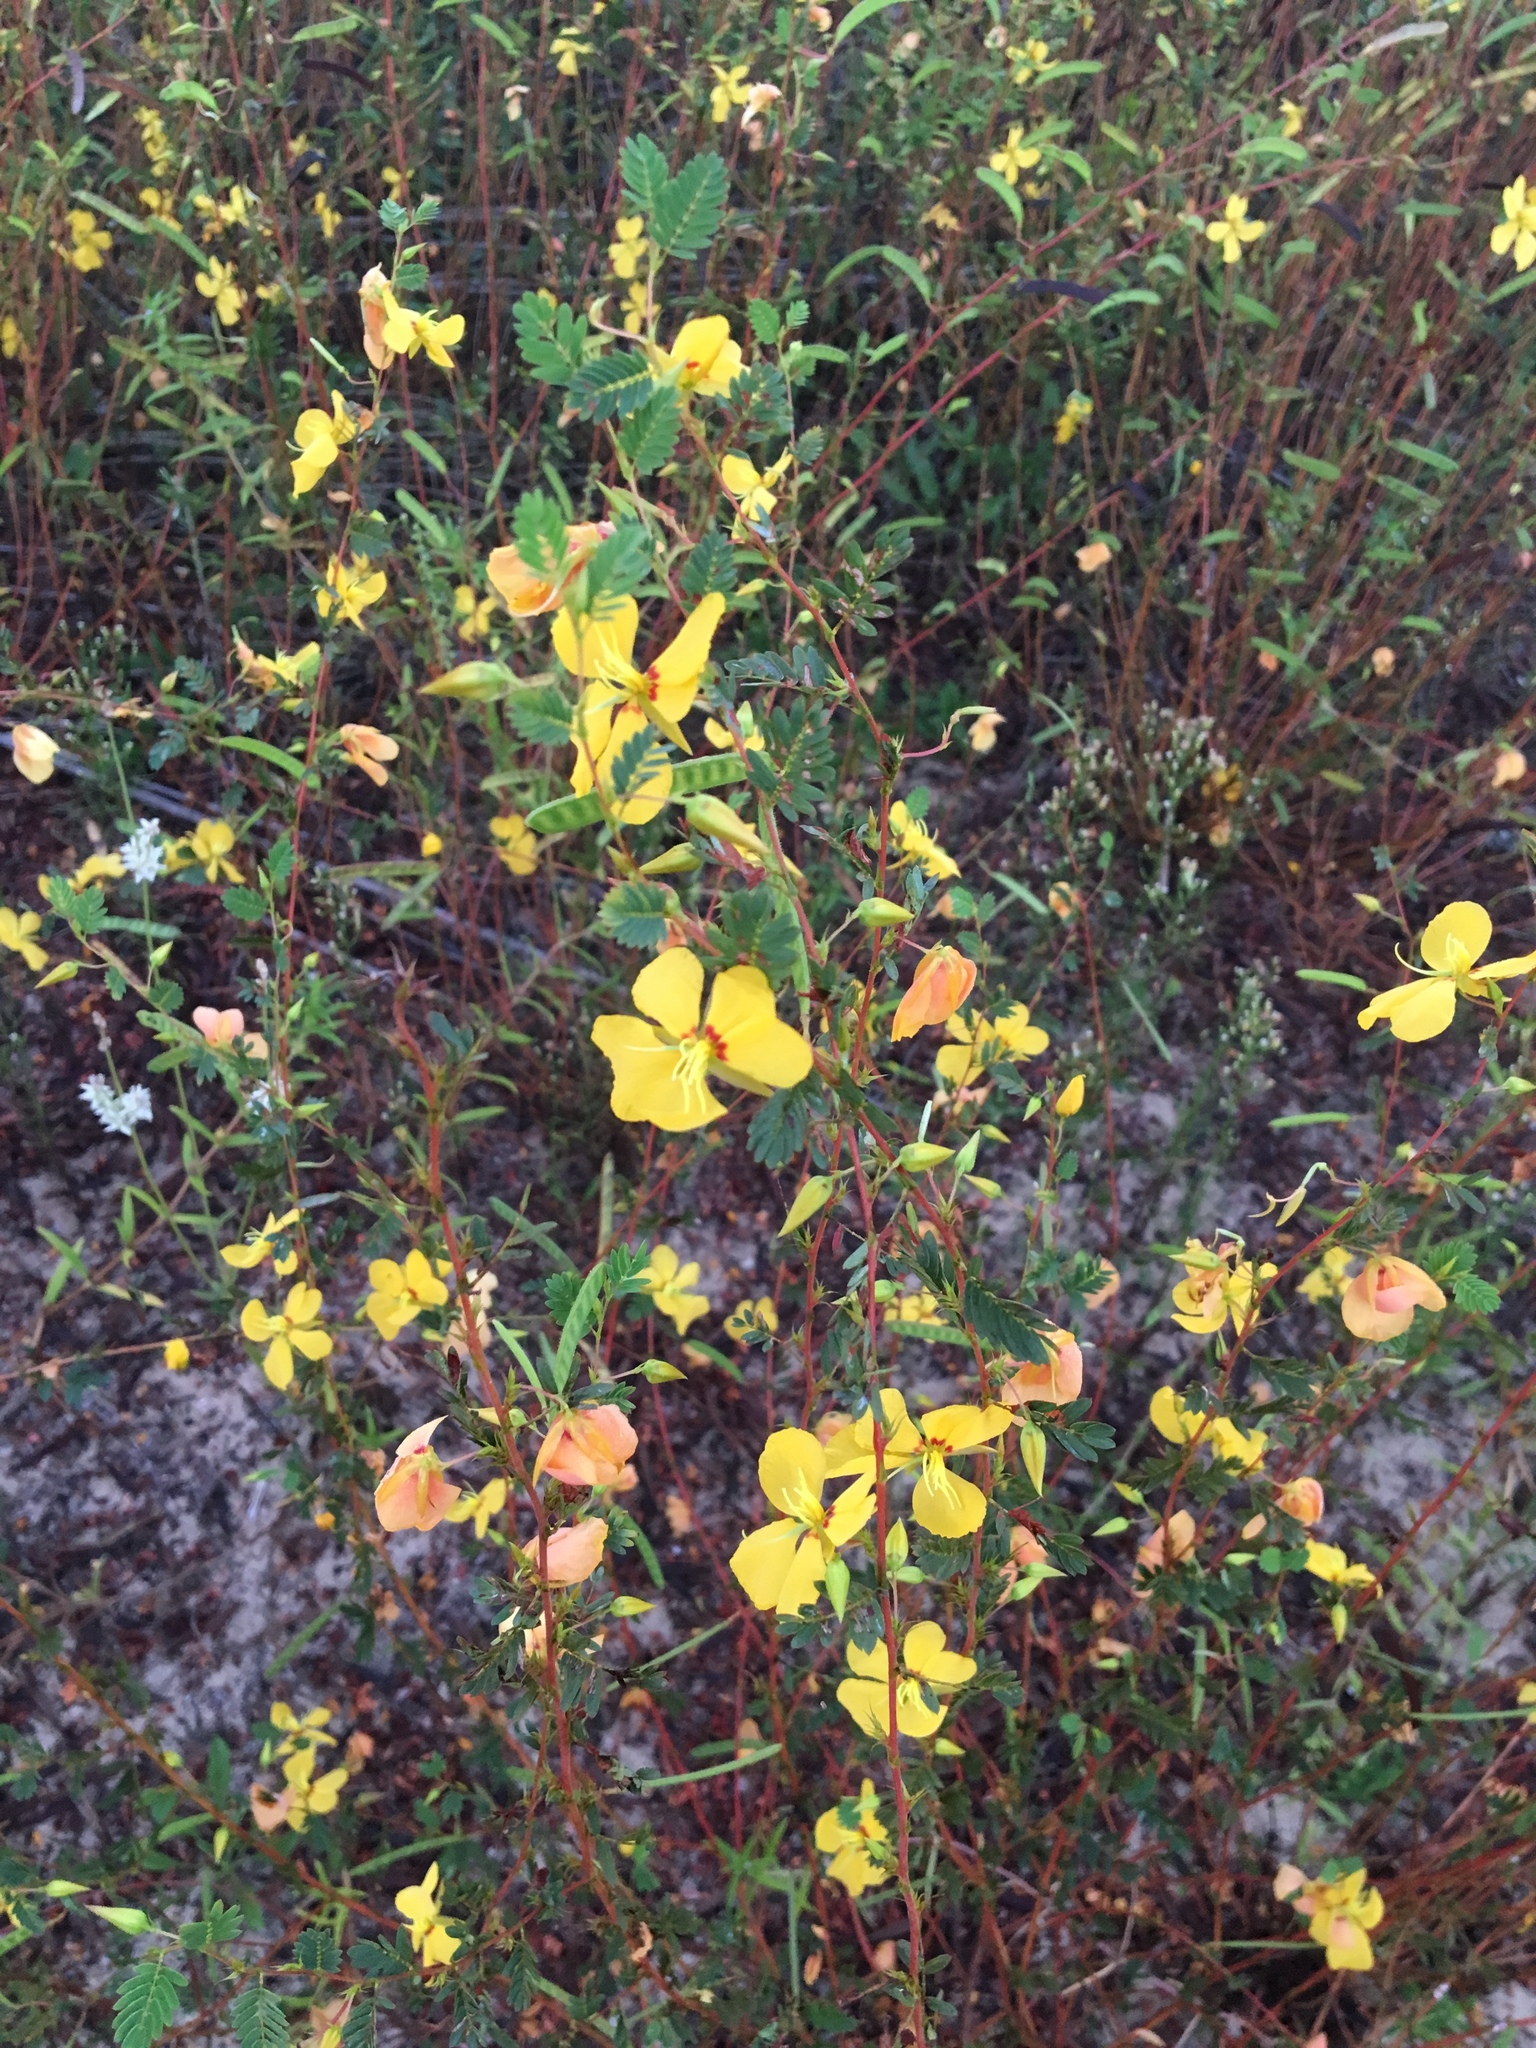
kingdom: Plantae
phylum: Tracheophyta
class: Magnoliopsida
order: Fabales
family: Fabaceae
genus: Chamaecrista
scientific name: Chamaecrista fasciculata
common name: Golden cassia
